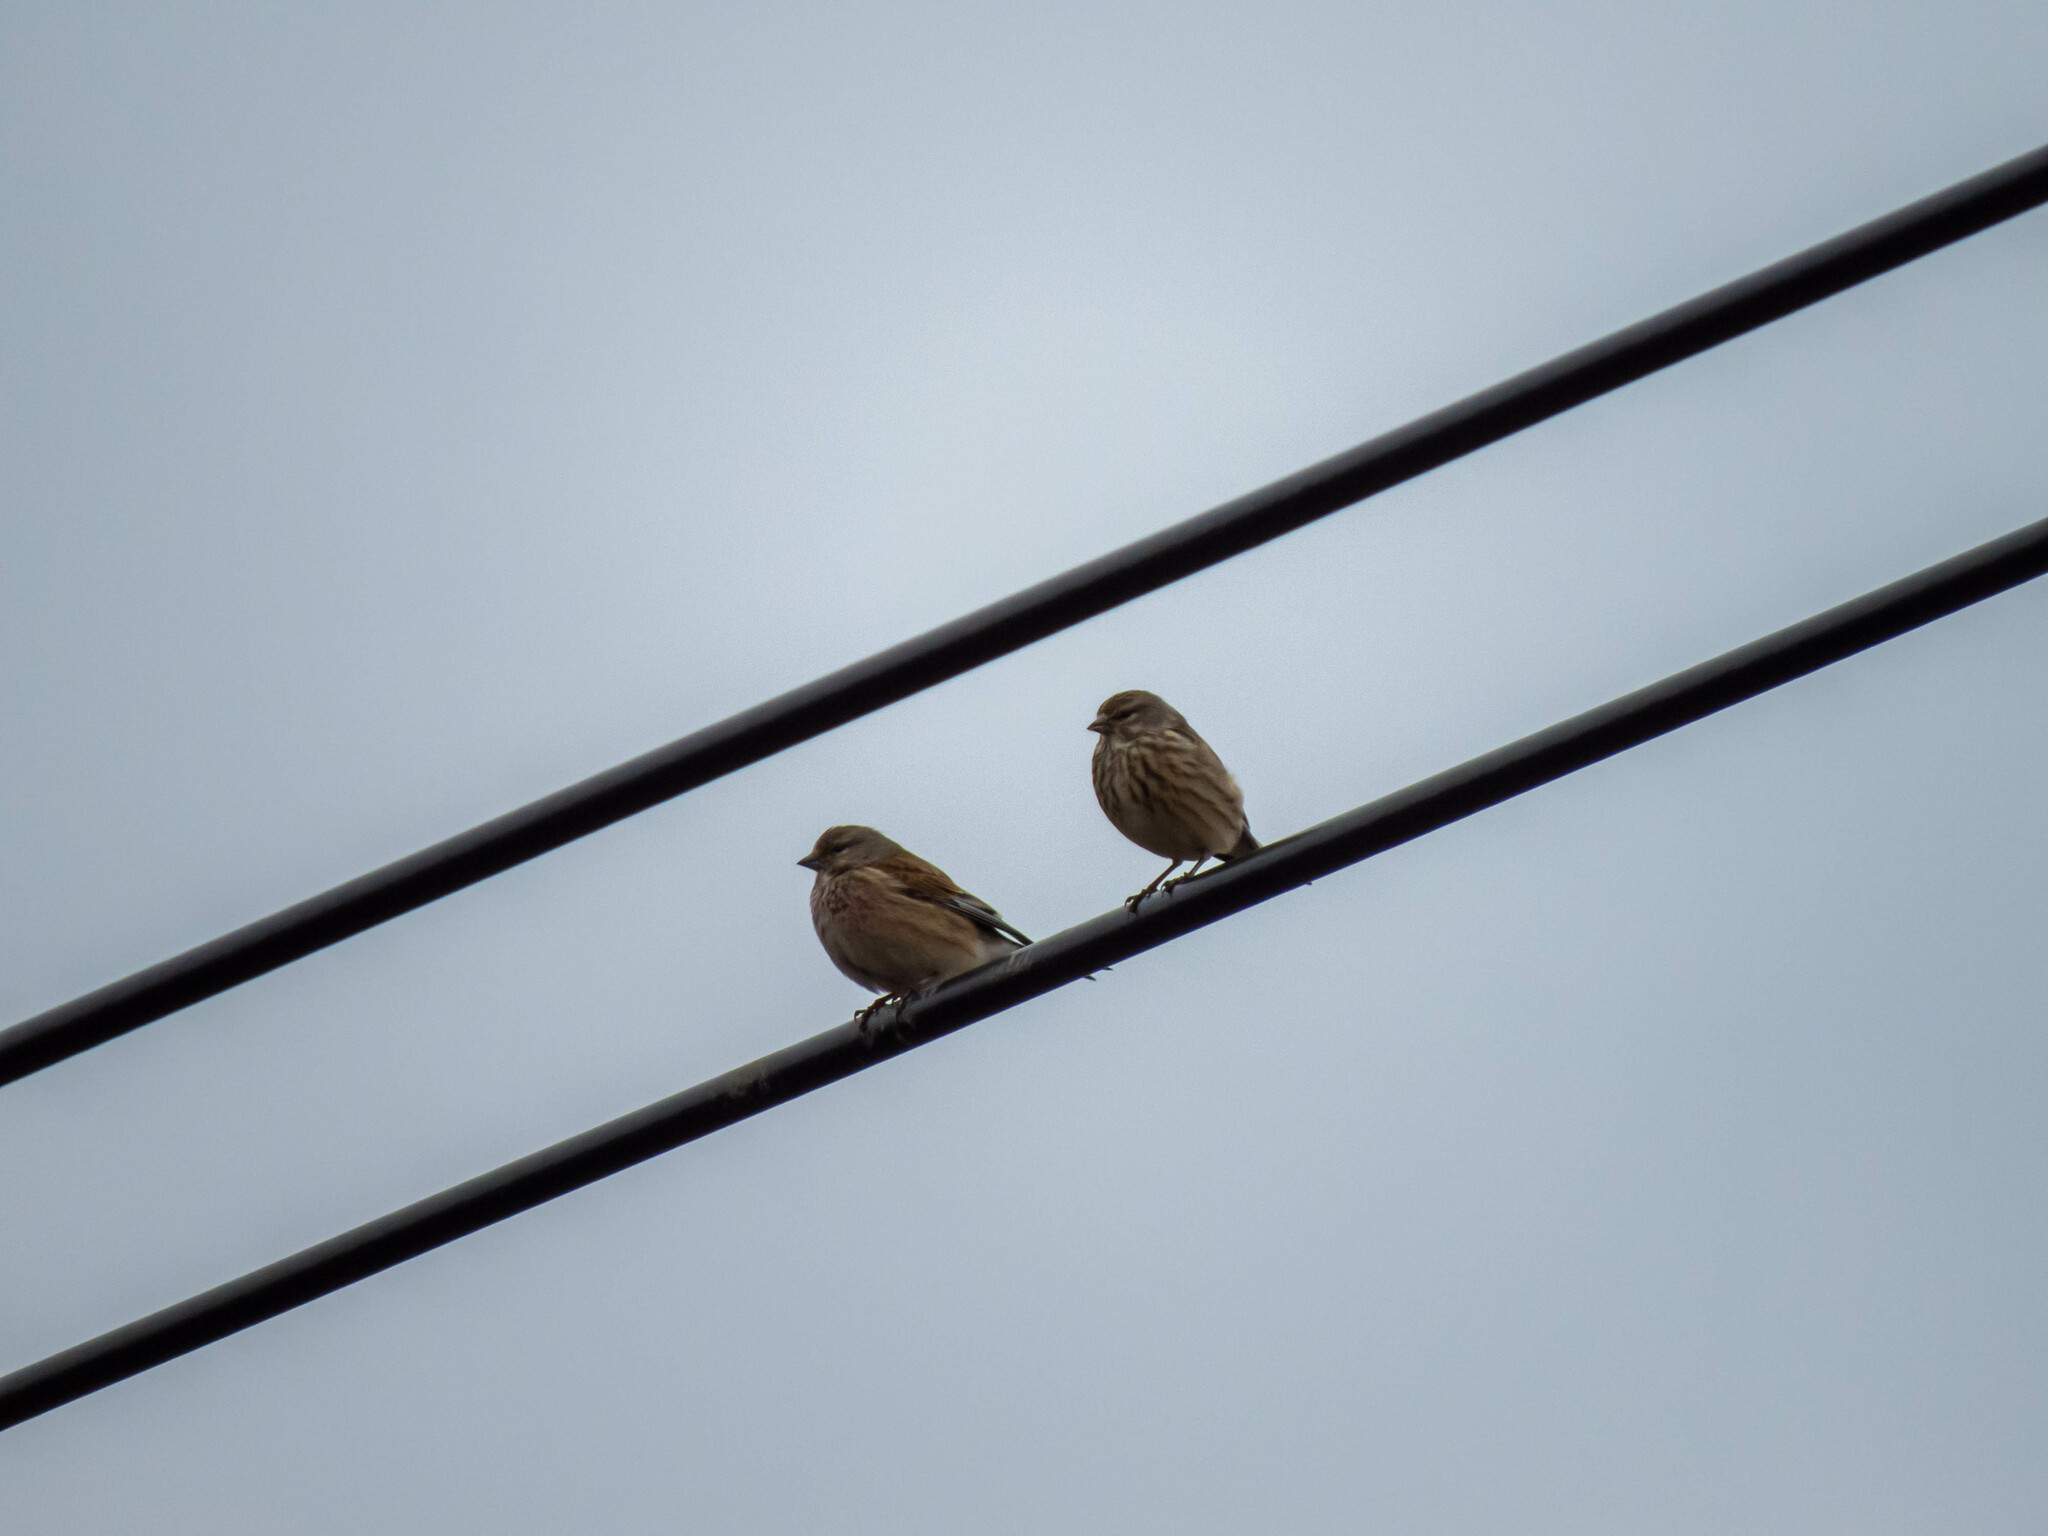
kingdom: Animalia
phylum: Chordata
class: Aves
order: Passeriformes
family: Fringillidae
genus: Linaria
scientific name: Linaria cannabina
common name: Common linnet
